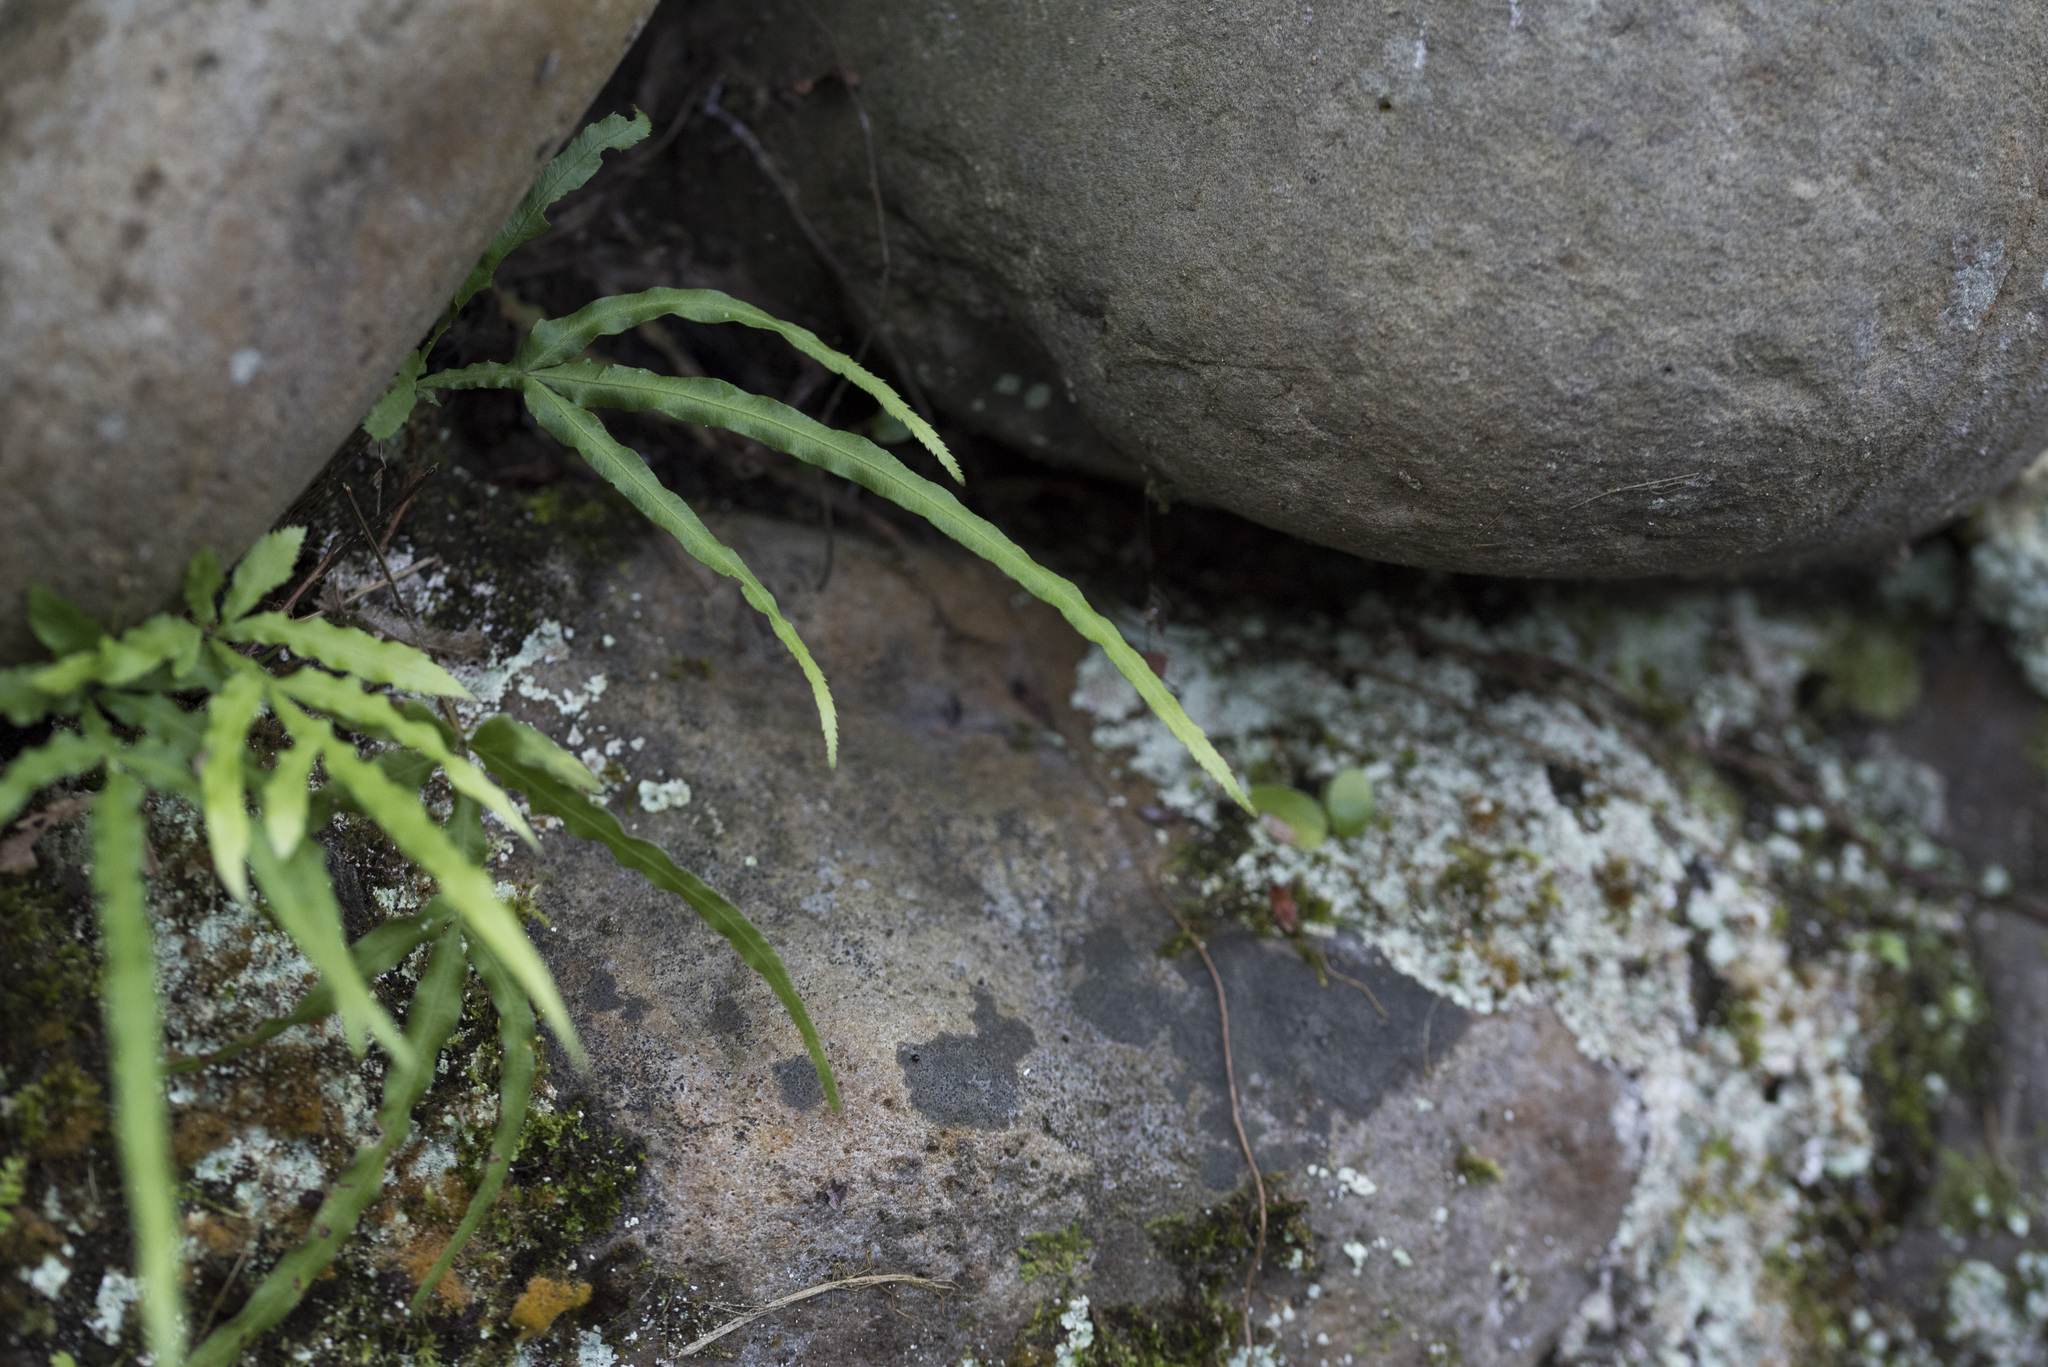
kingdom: Plantae
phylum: Tracheophyta
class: Polypodiopsida
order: Polypodiales
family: Pteridaceae
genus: Pteris
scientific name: Pteris multifida
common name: Spider brake
